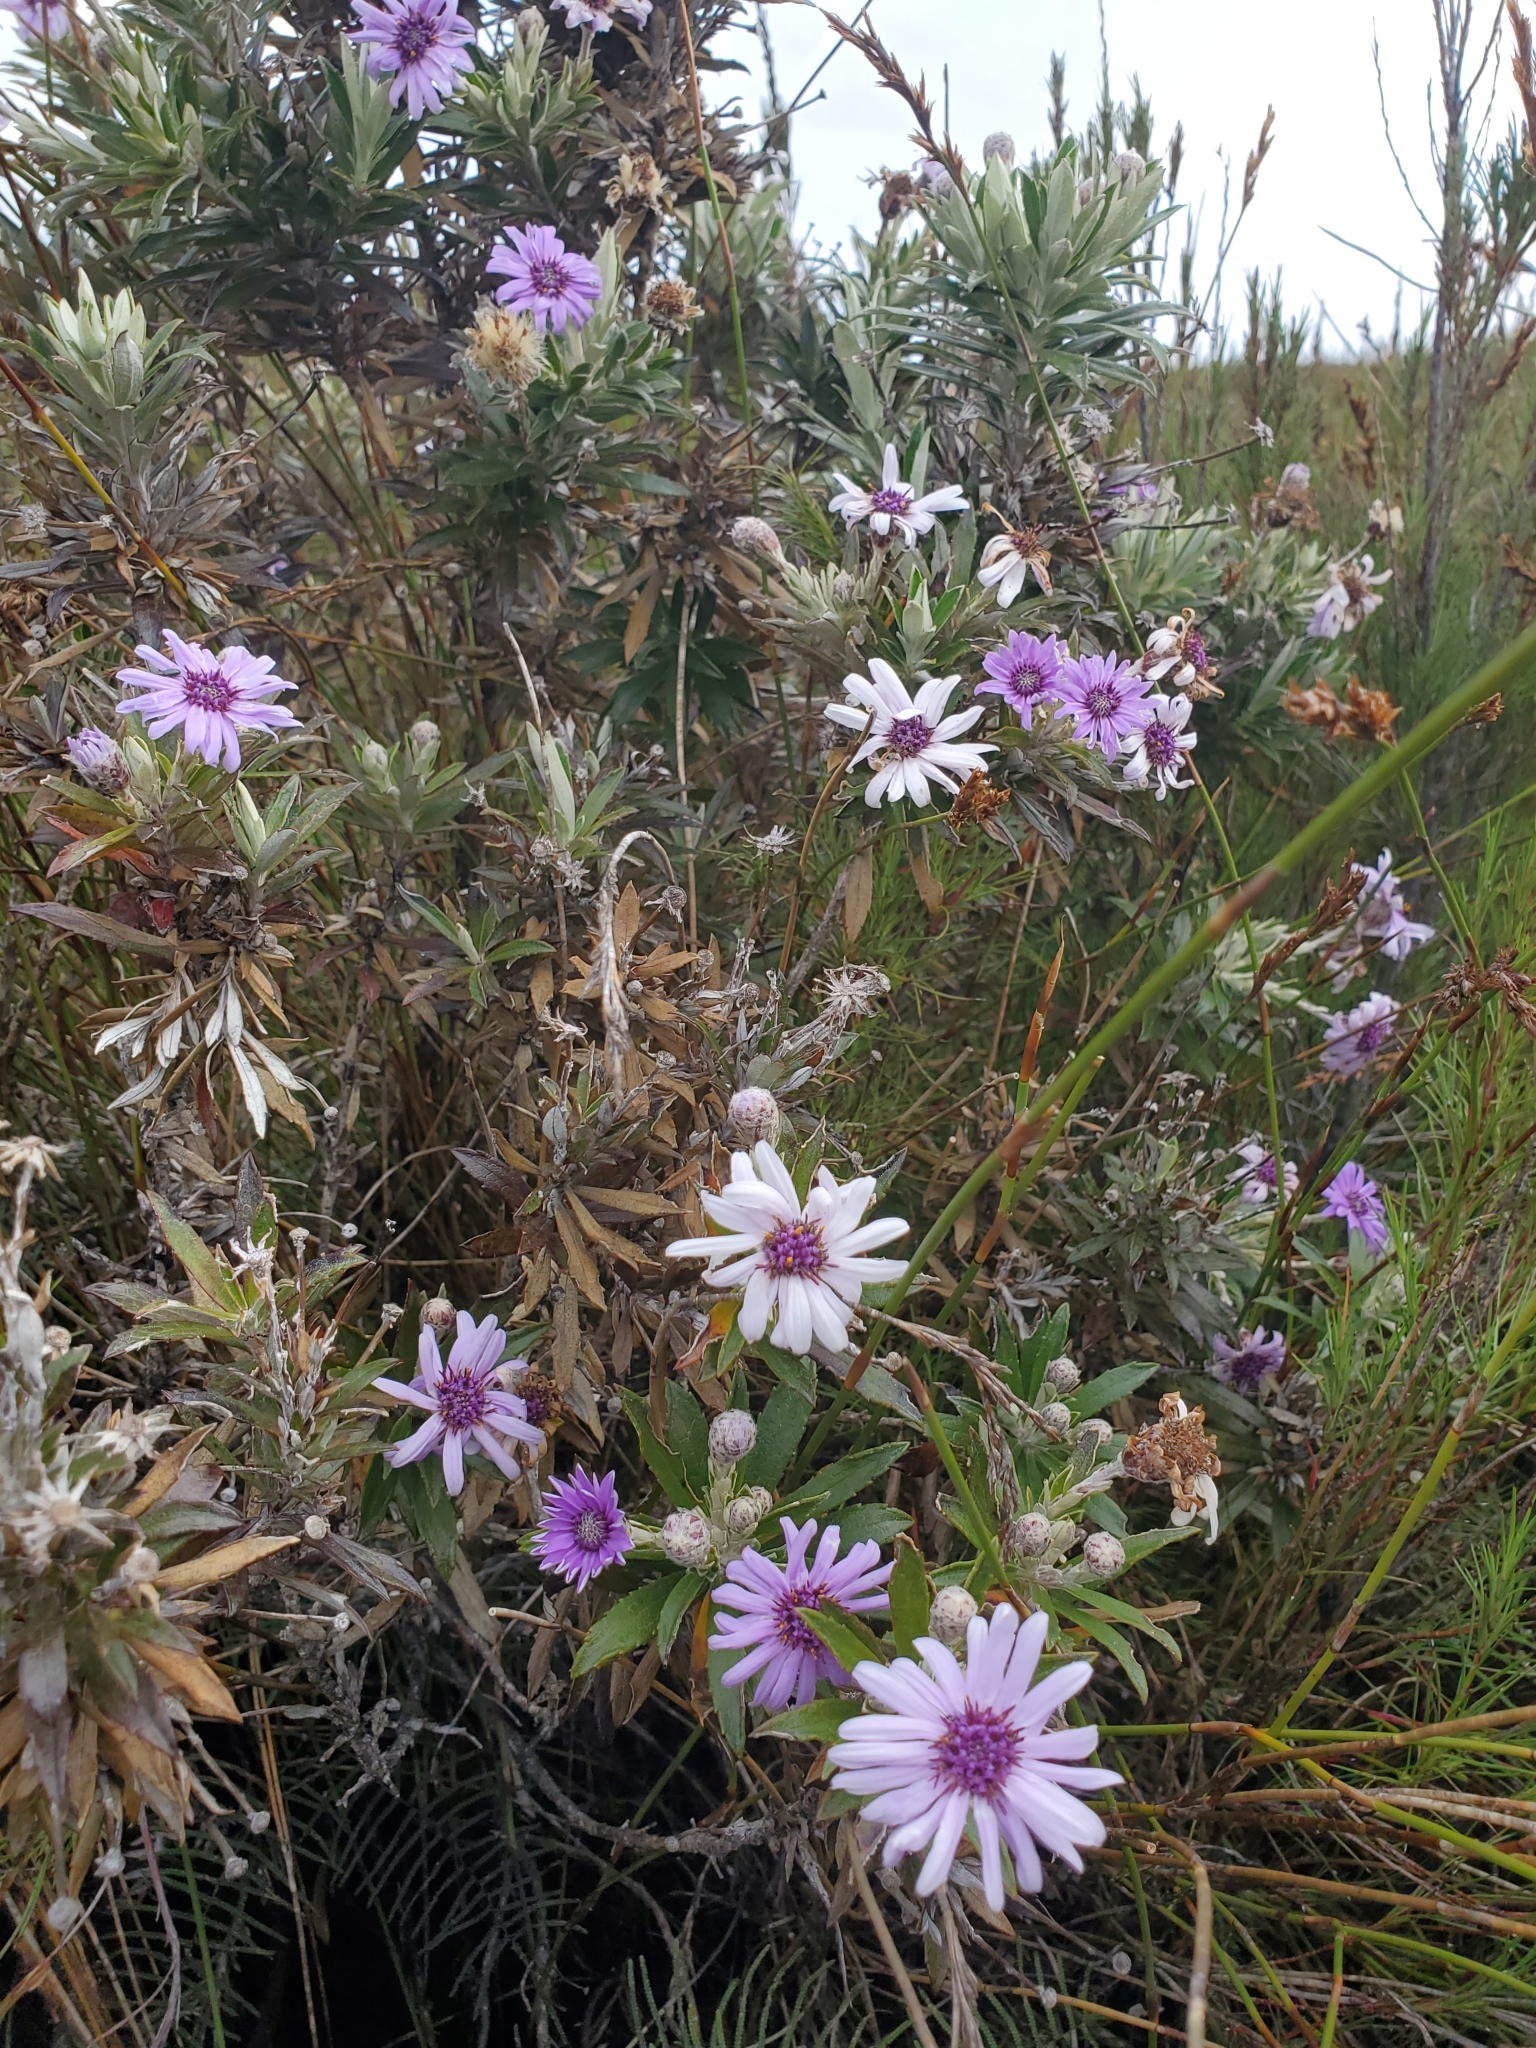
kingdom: Plantae
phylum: Tracheophyta
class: Magnoliopsida
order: Asterales
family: Asteraceae
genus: Macrolearia
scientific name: Macrolearia semidentata
